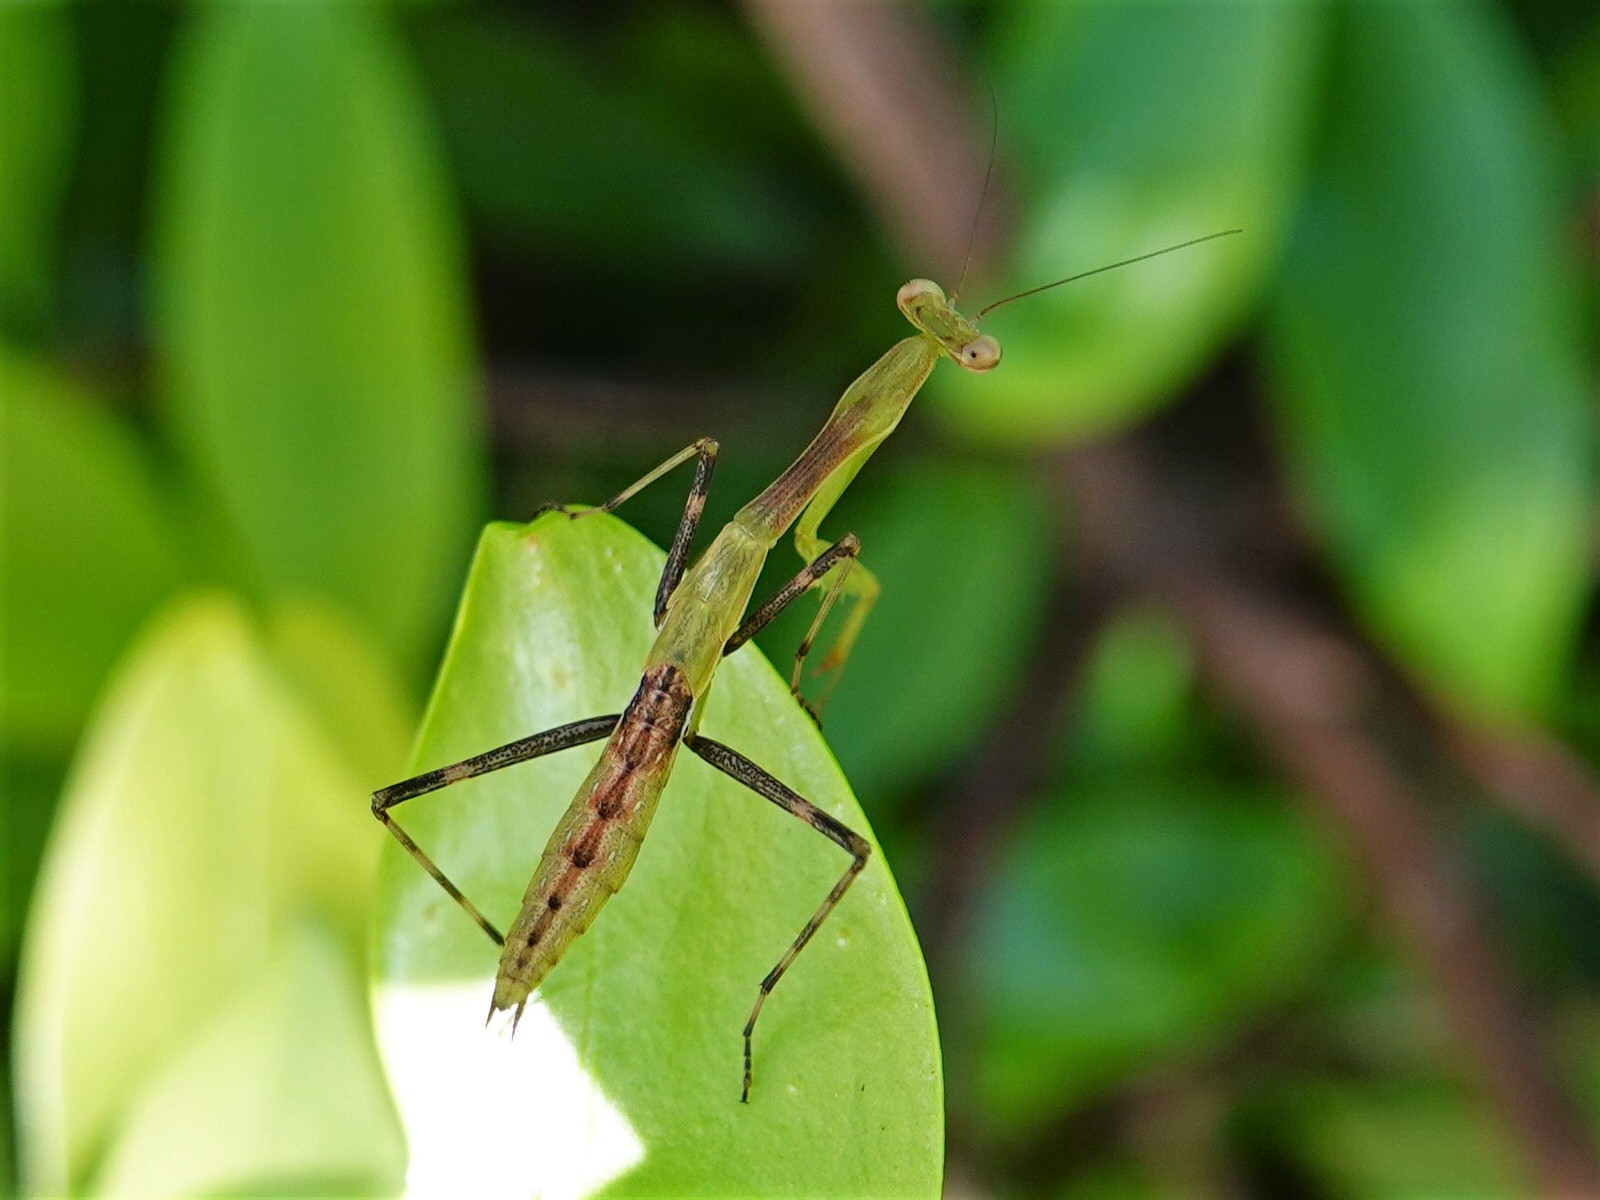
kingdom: Animalia
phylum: Arthropoda
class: Insecta
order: Mantodea
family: Miomantidae
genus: Miomantis
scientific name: Miomantis caffra
